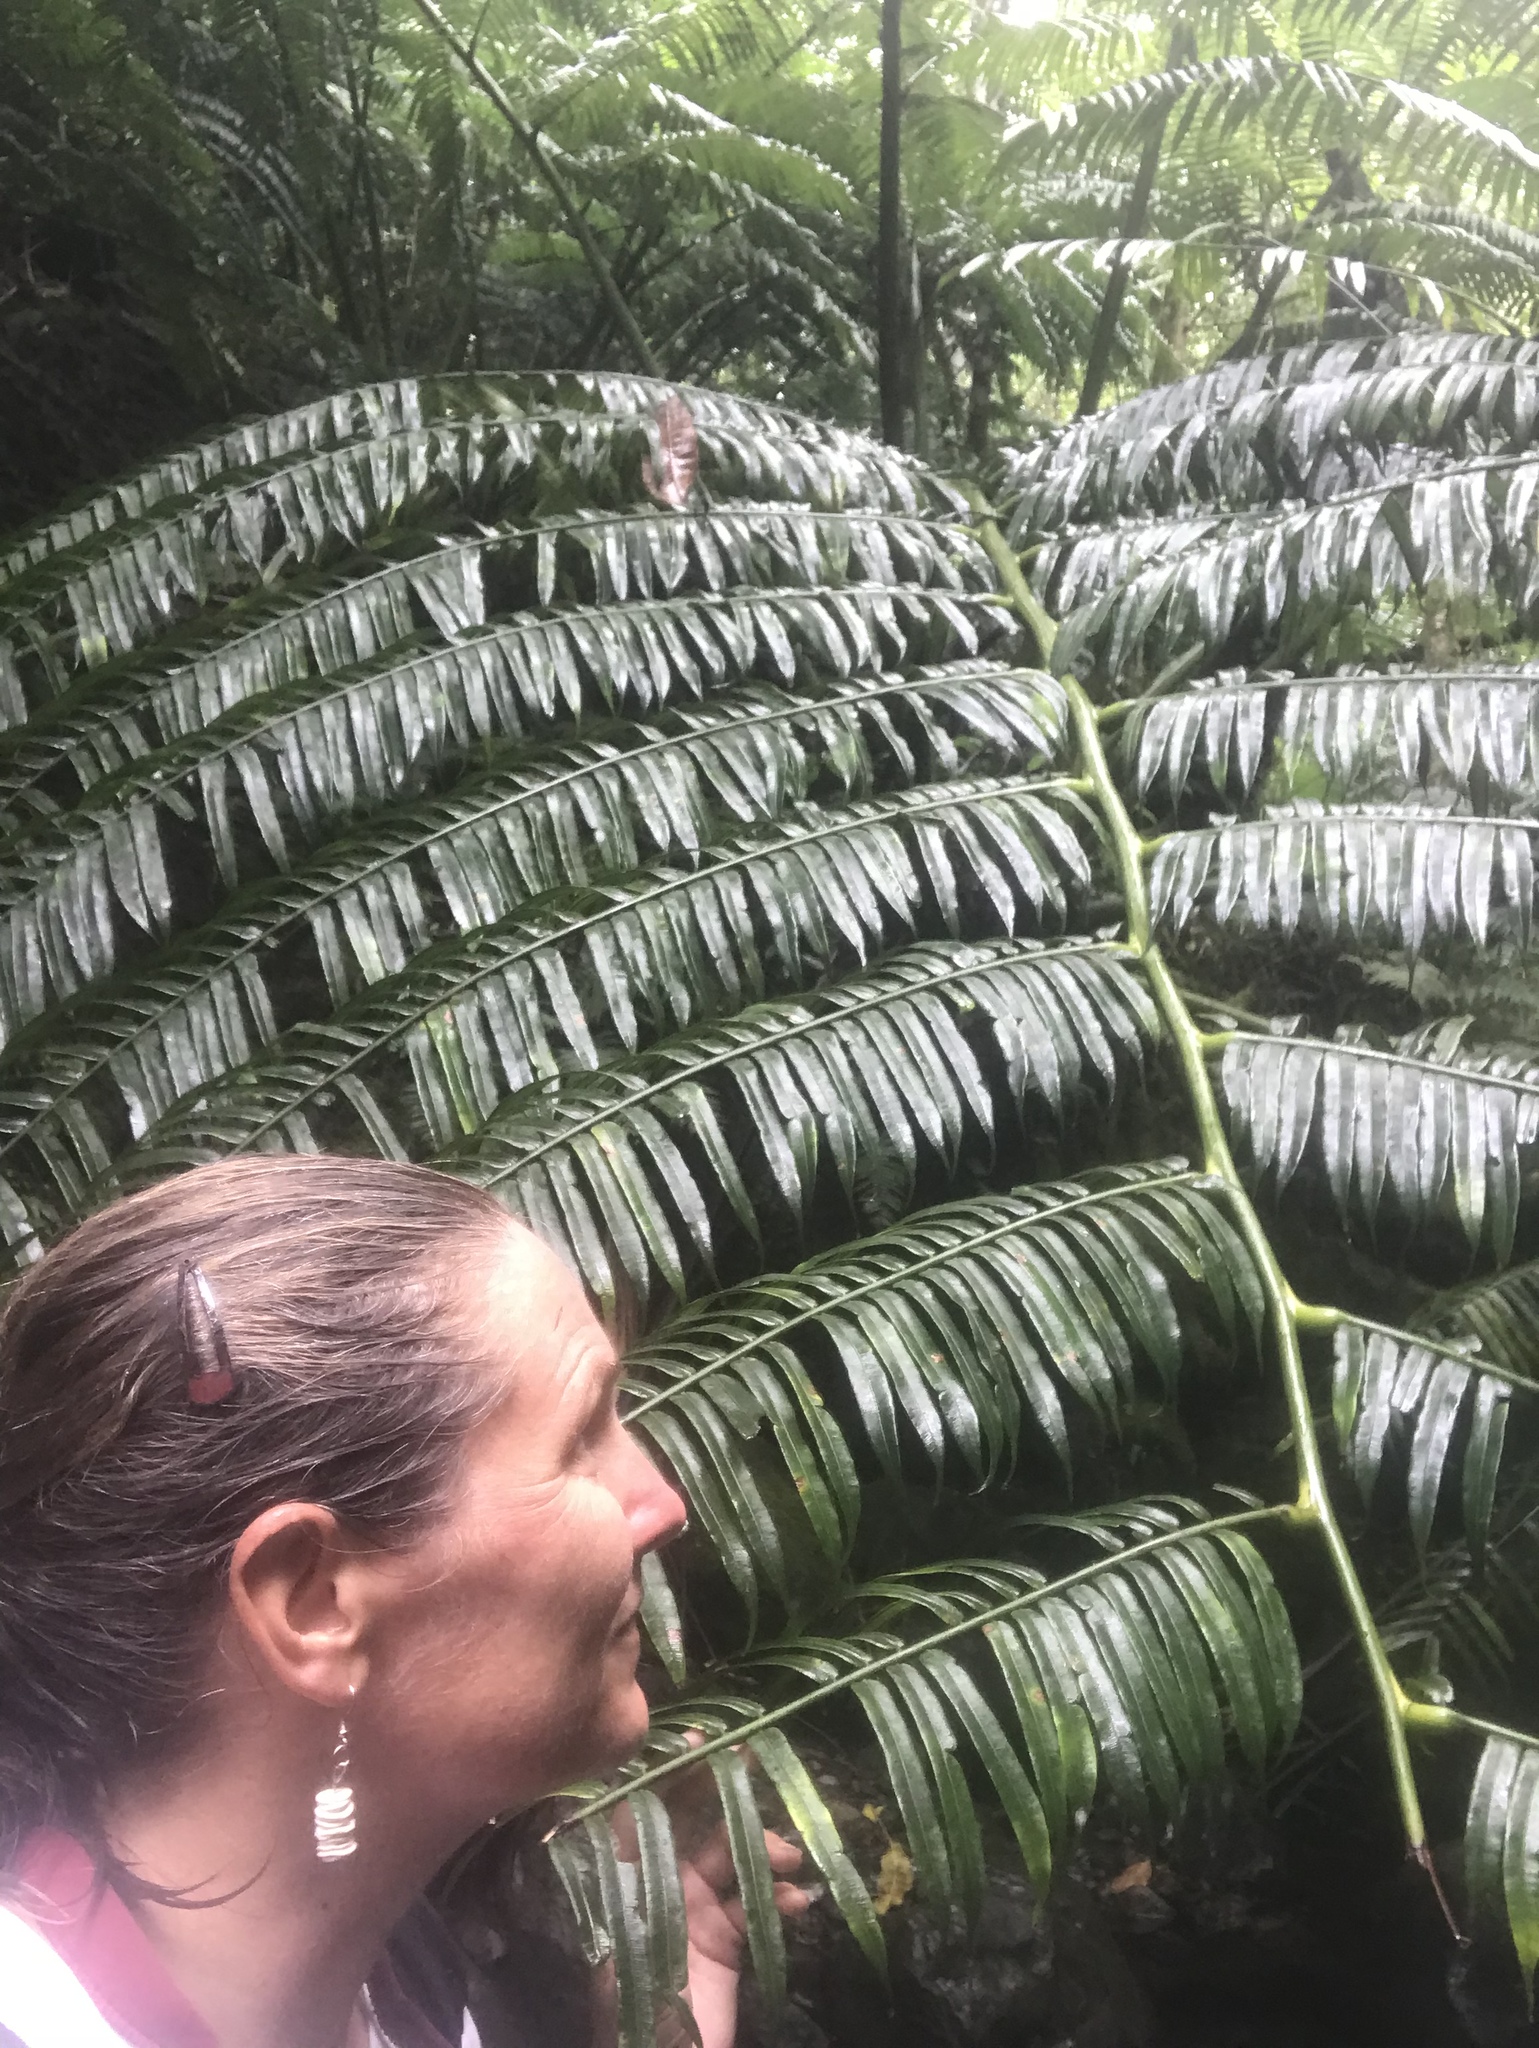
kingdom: Plantae
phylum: Tracheophyta
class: Polypodiopsida
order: Marattiales
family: Marattiaceae
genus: Angiopteris
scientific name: Angiopteris evecta
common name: Mule's-foot fern
